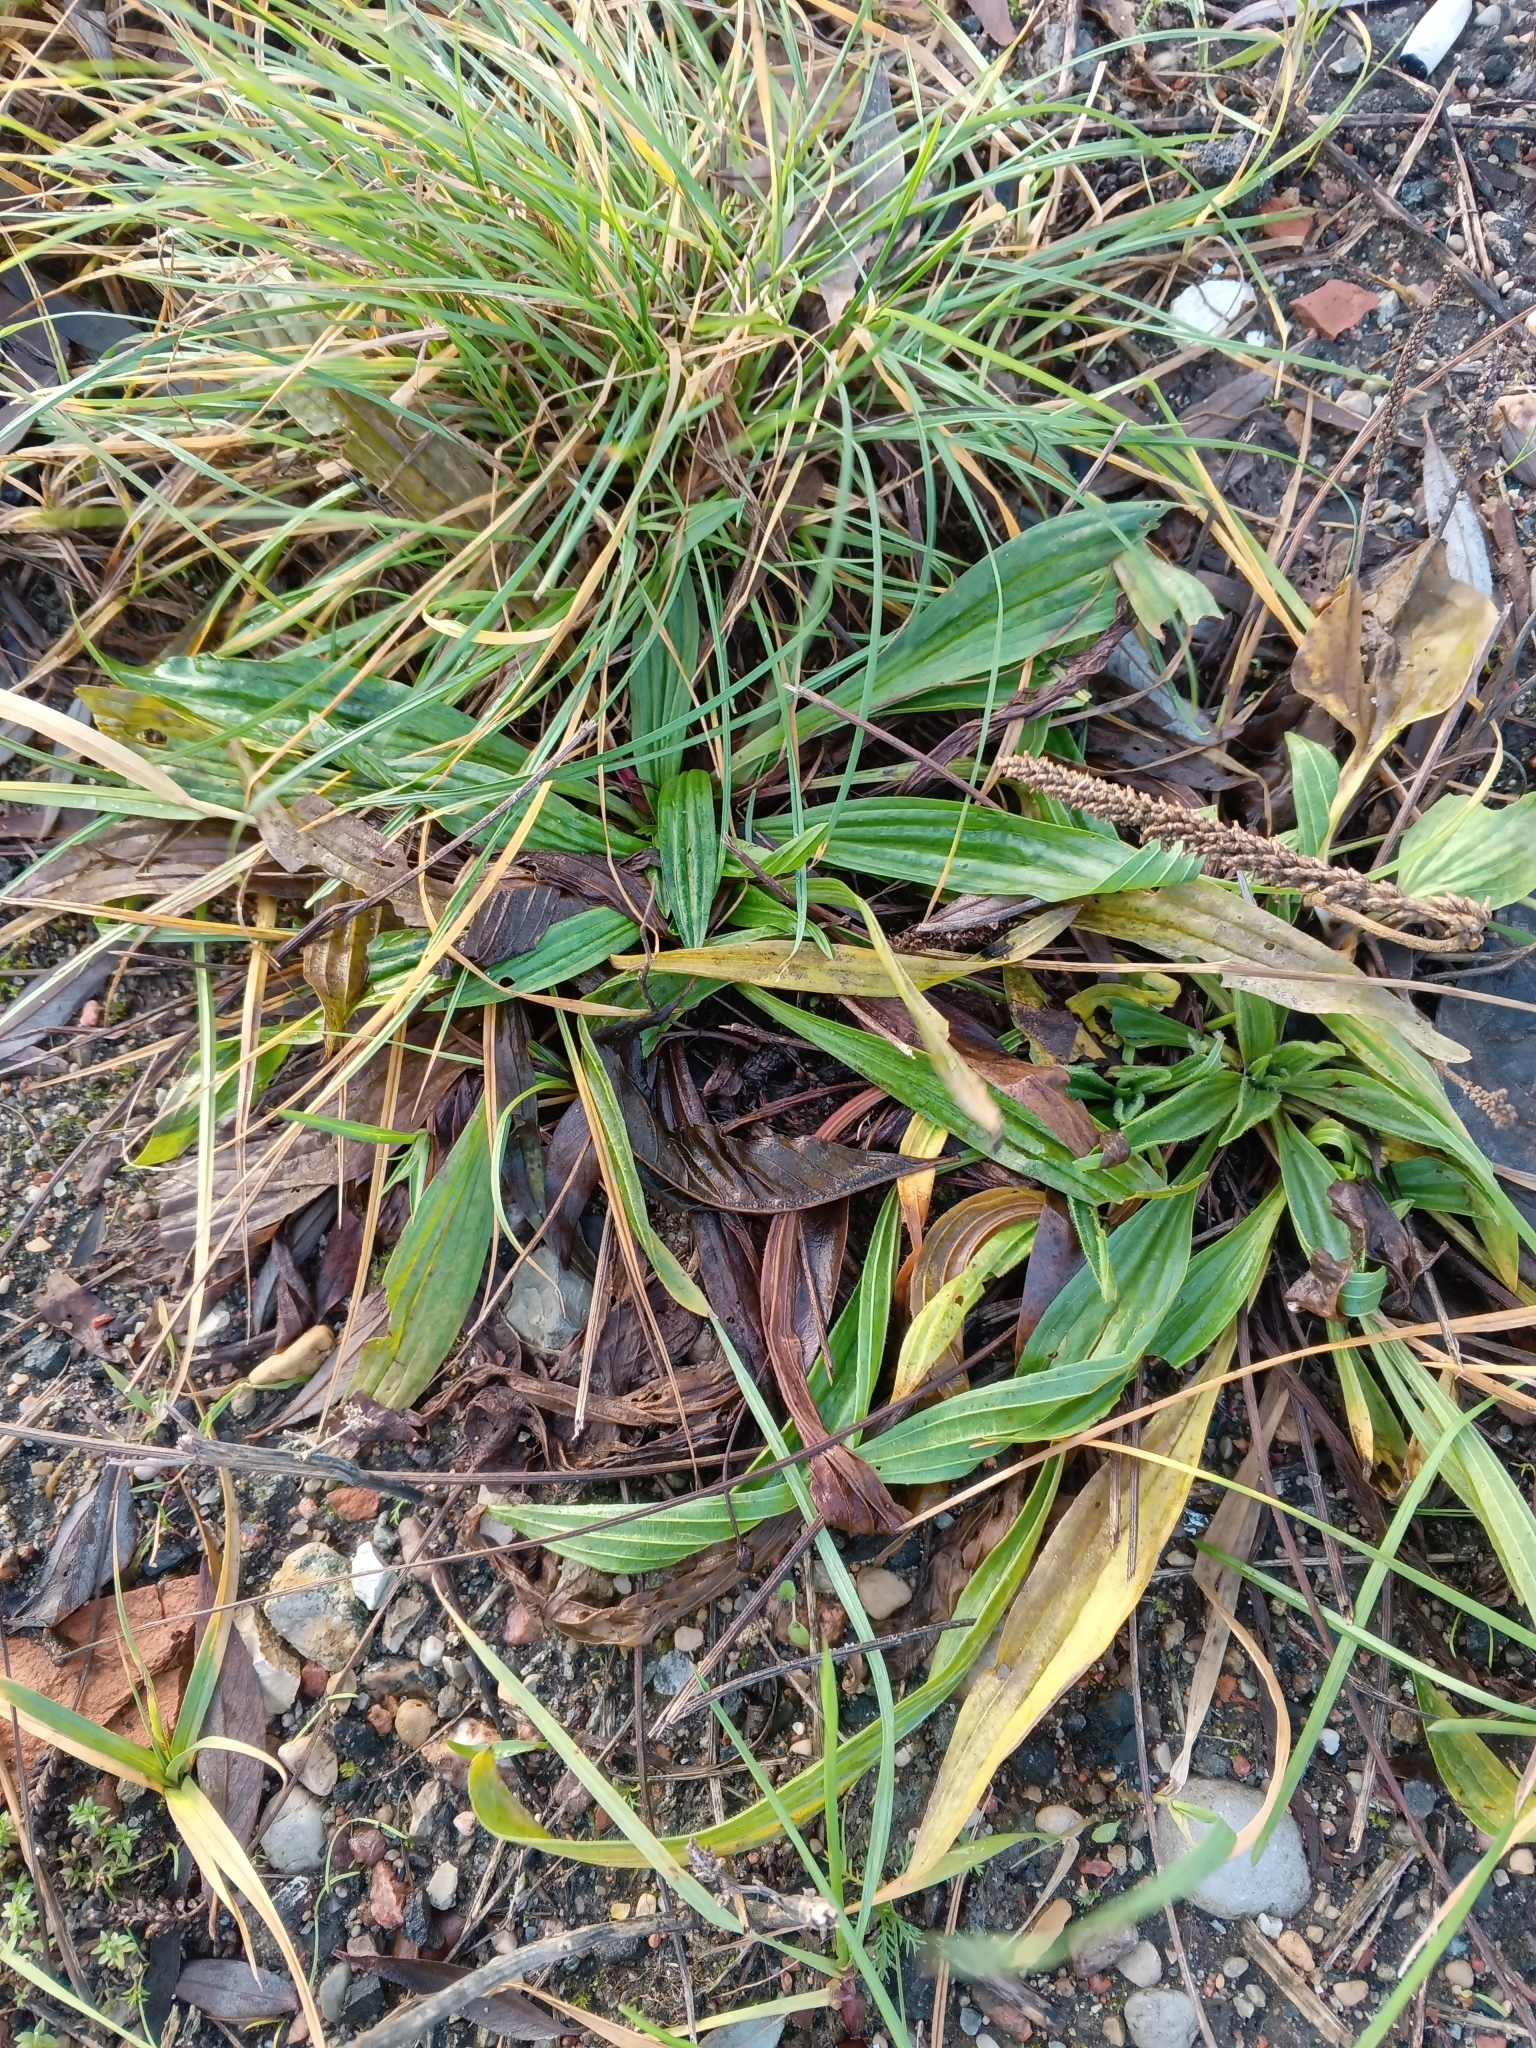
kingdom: Plantae
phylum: Tracheophyta
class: Magnoliopsida
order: Lamiales
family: Plantaginaceae
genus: Plantago
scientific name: Plantago lanceolata
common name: Ribwort plantain
